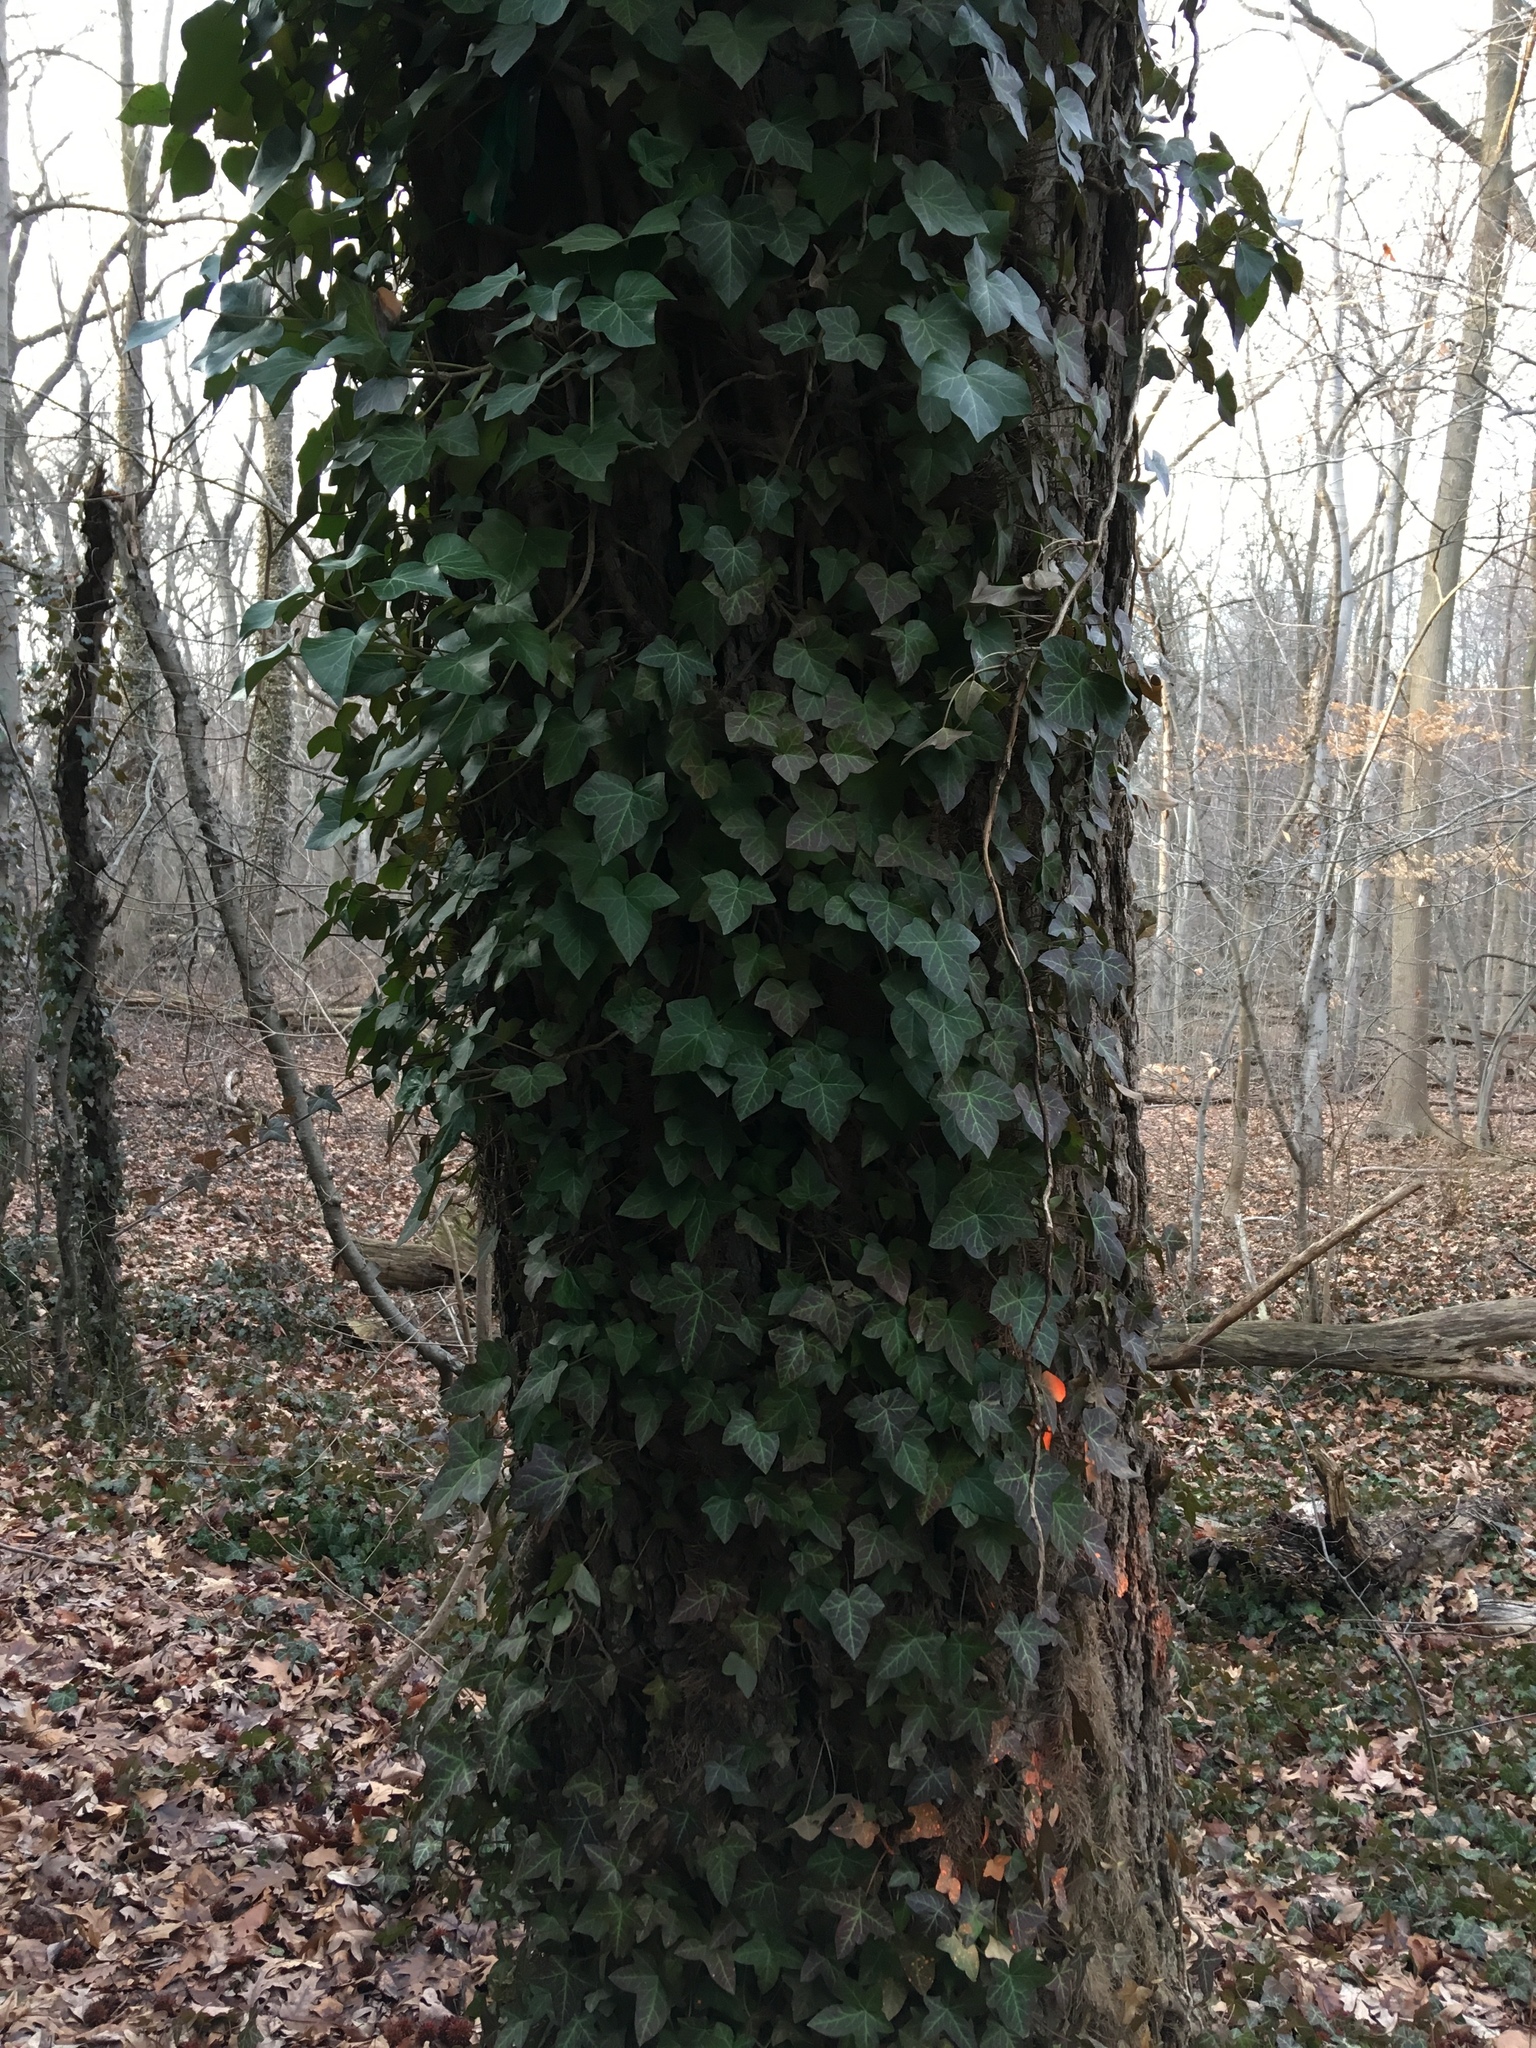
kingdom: Plantae
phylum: Tracheophyta
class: Magnoliopsida
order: Apiales
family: Araliaceae
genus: Hedera
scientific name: Hedera helix
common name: Ivy
